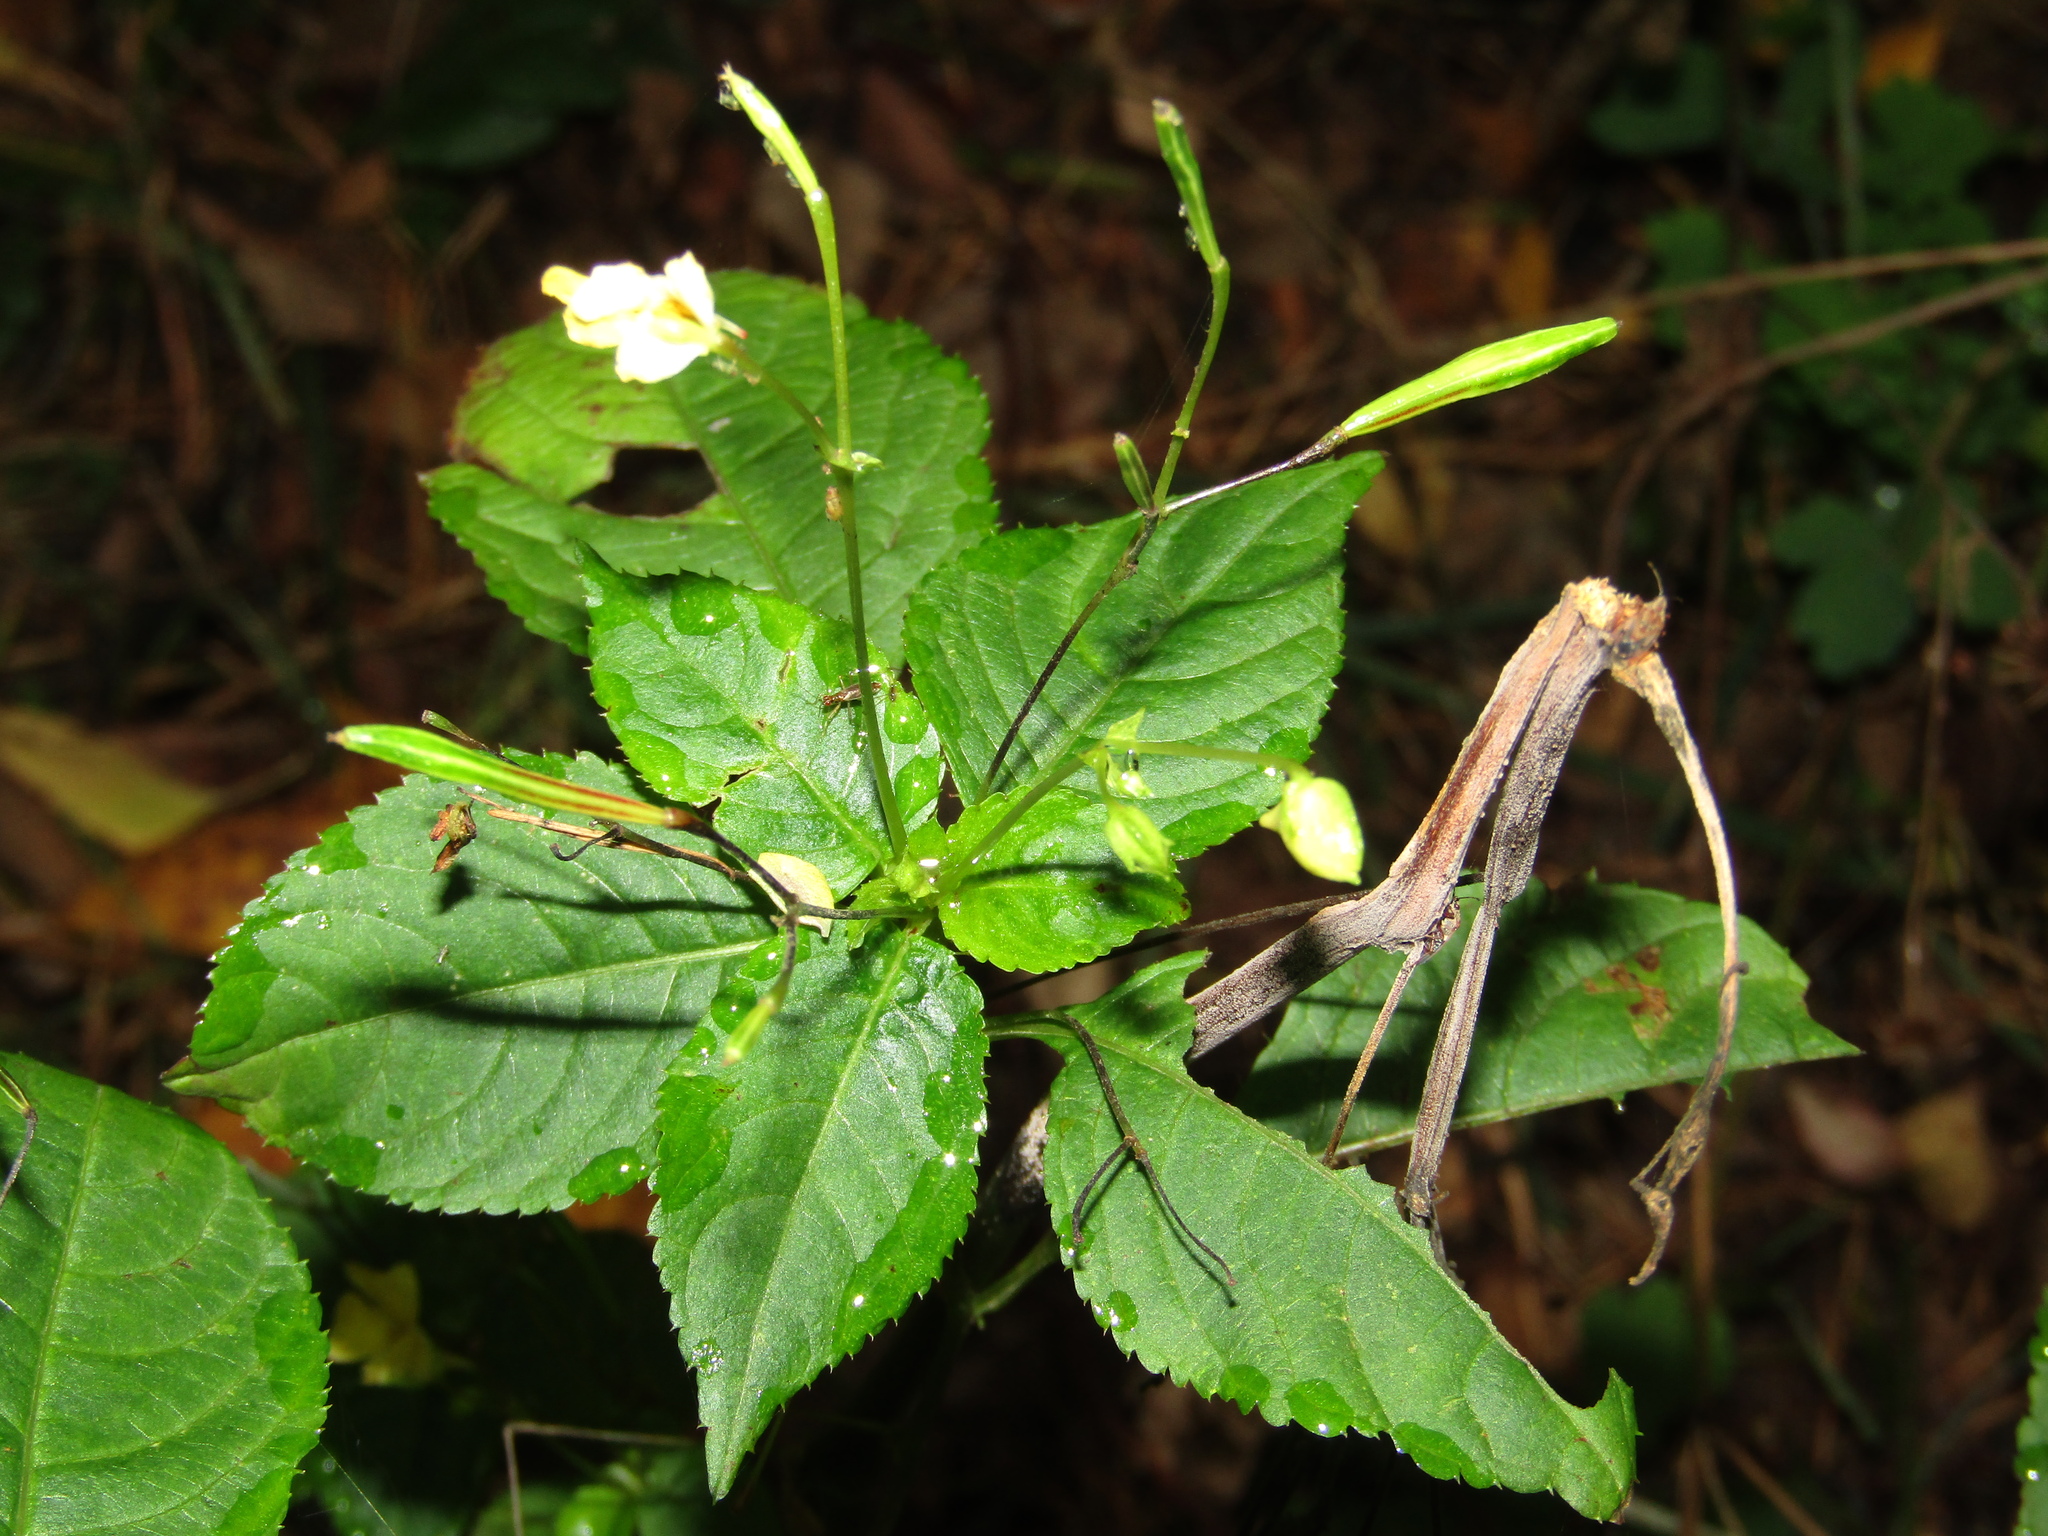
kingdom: Plantae
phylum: Tracheophyta
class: Magnoliopsida
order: Ericales
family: Balsaminaceae
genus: Impatiens
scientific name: Impatiens parviflora
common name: Small balsam
